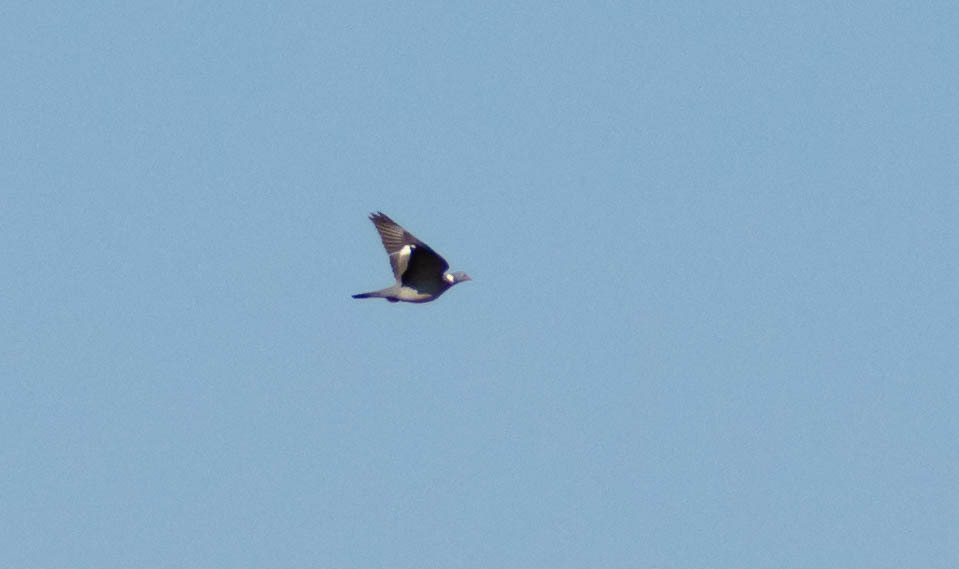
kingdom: Animalia
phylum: Chordata
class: Aves
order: Columbiformes
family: Columbidae
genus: Columba
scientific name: Columba palumbus
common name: Common wood pigeon
